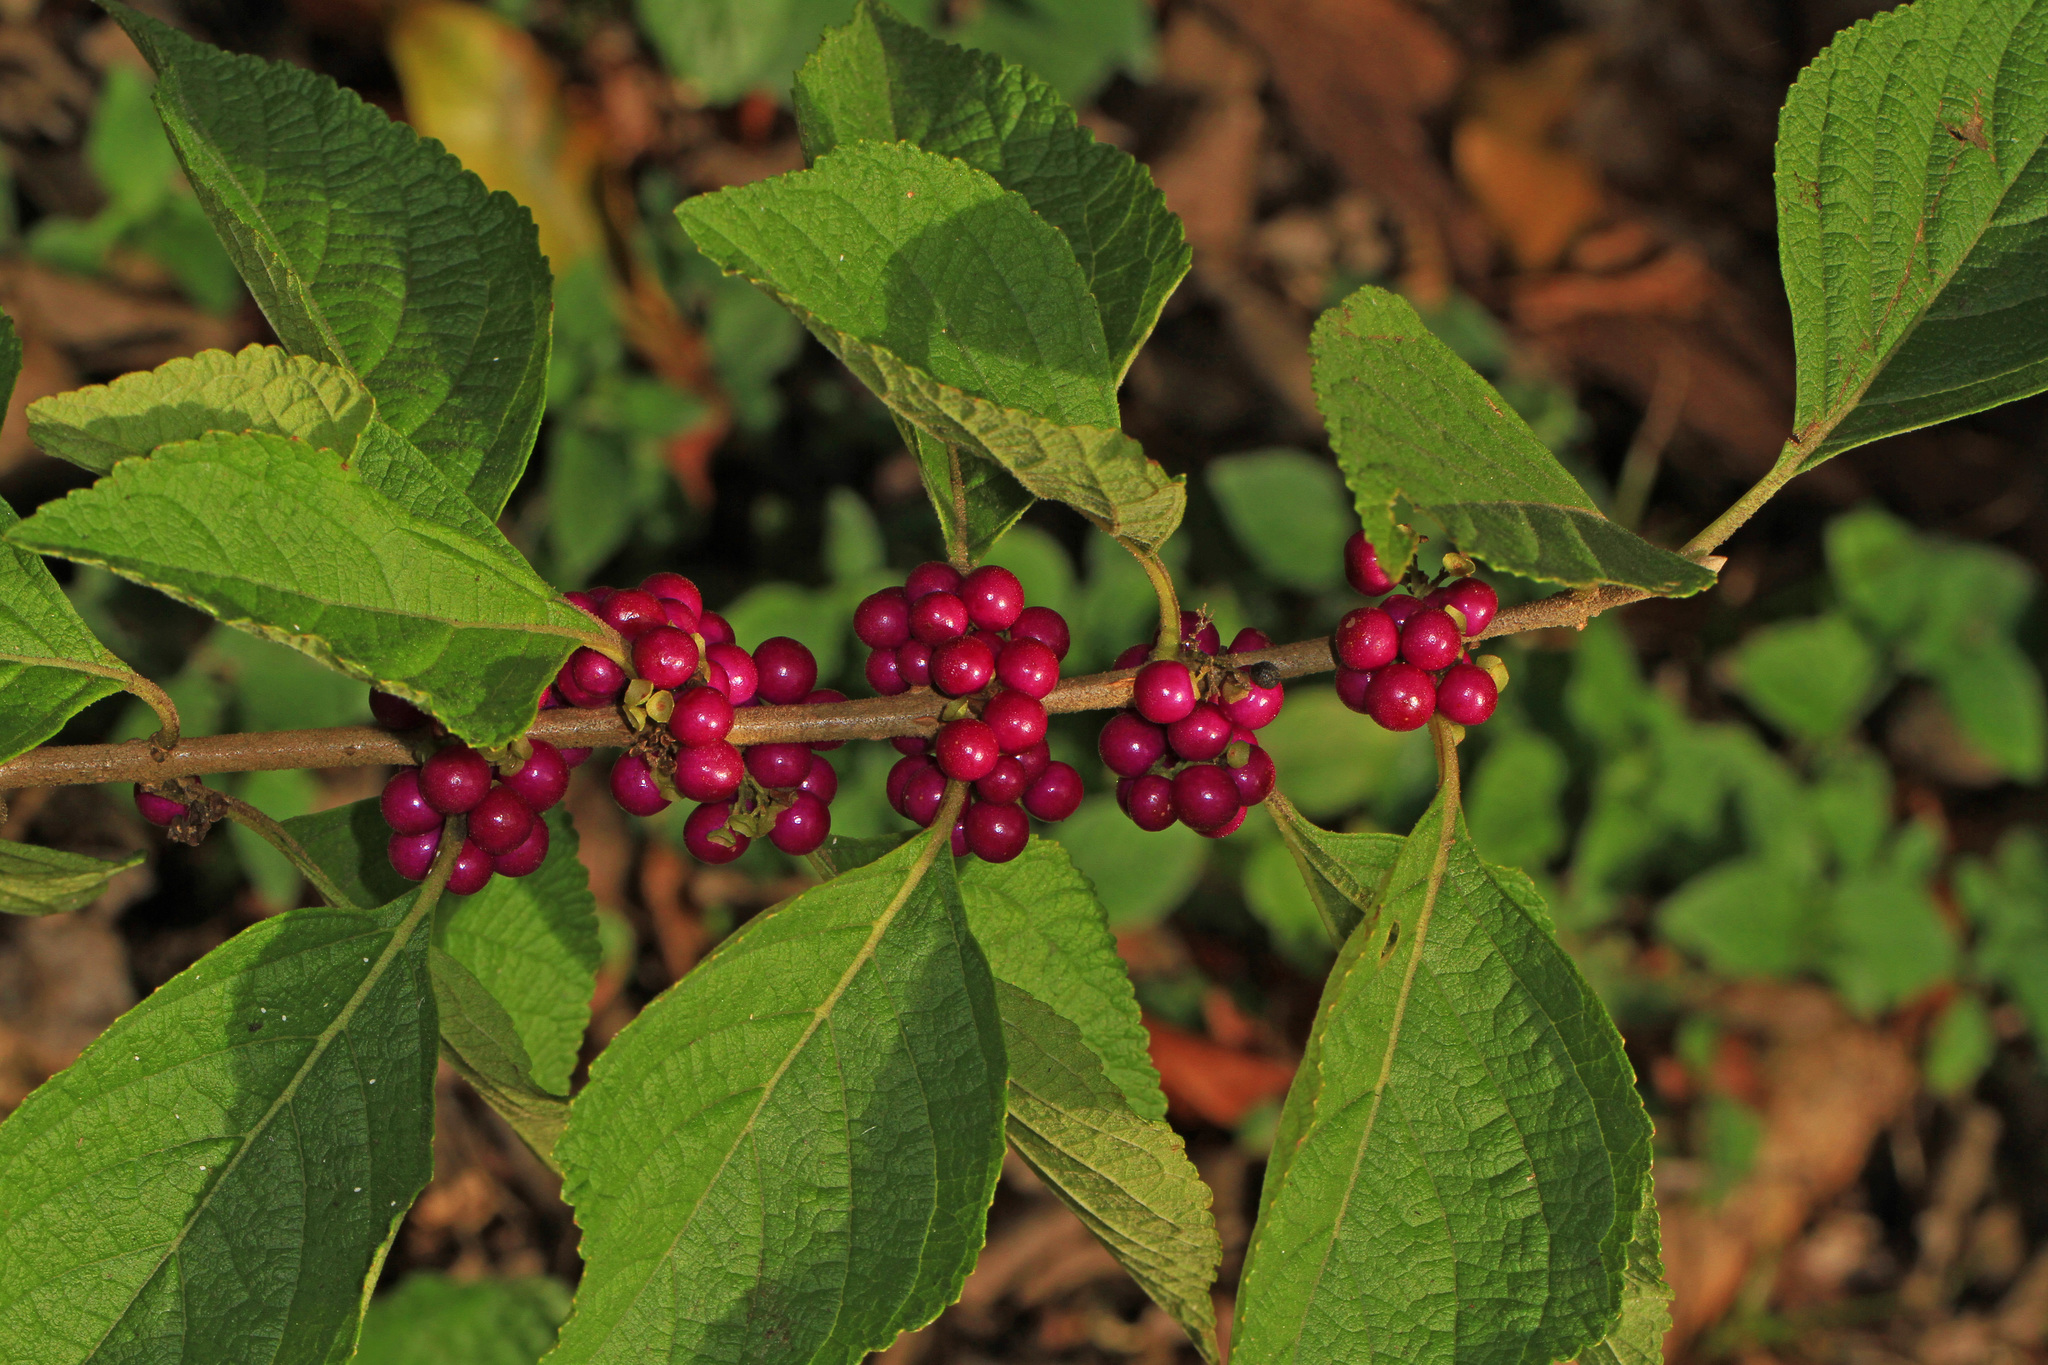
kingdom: Plantae
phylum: Tracheophyta
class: Magnoliopsida
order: Lamiales
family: Lamiaceae
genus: Callicarpa
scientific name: Callicarpa americana
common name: American beautyberry
